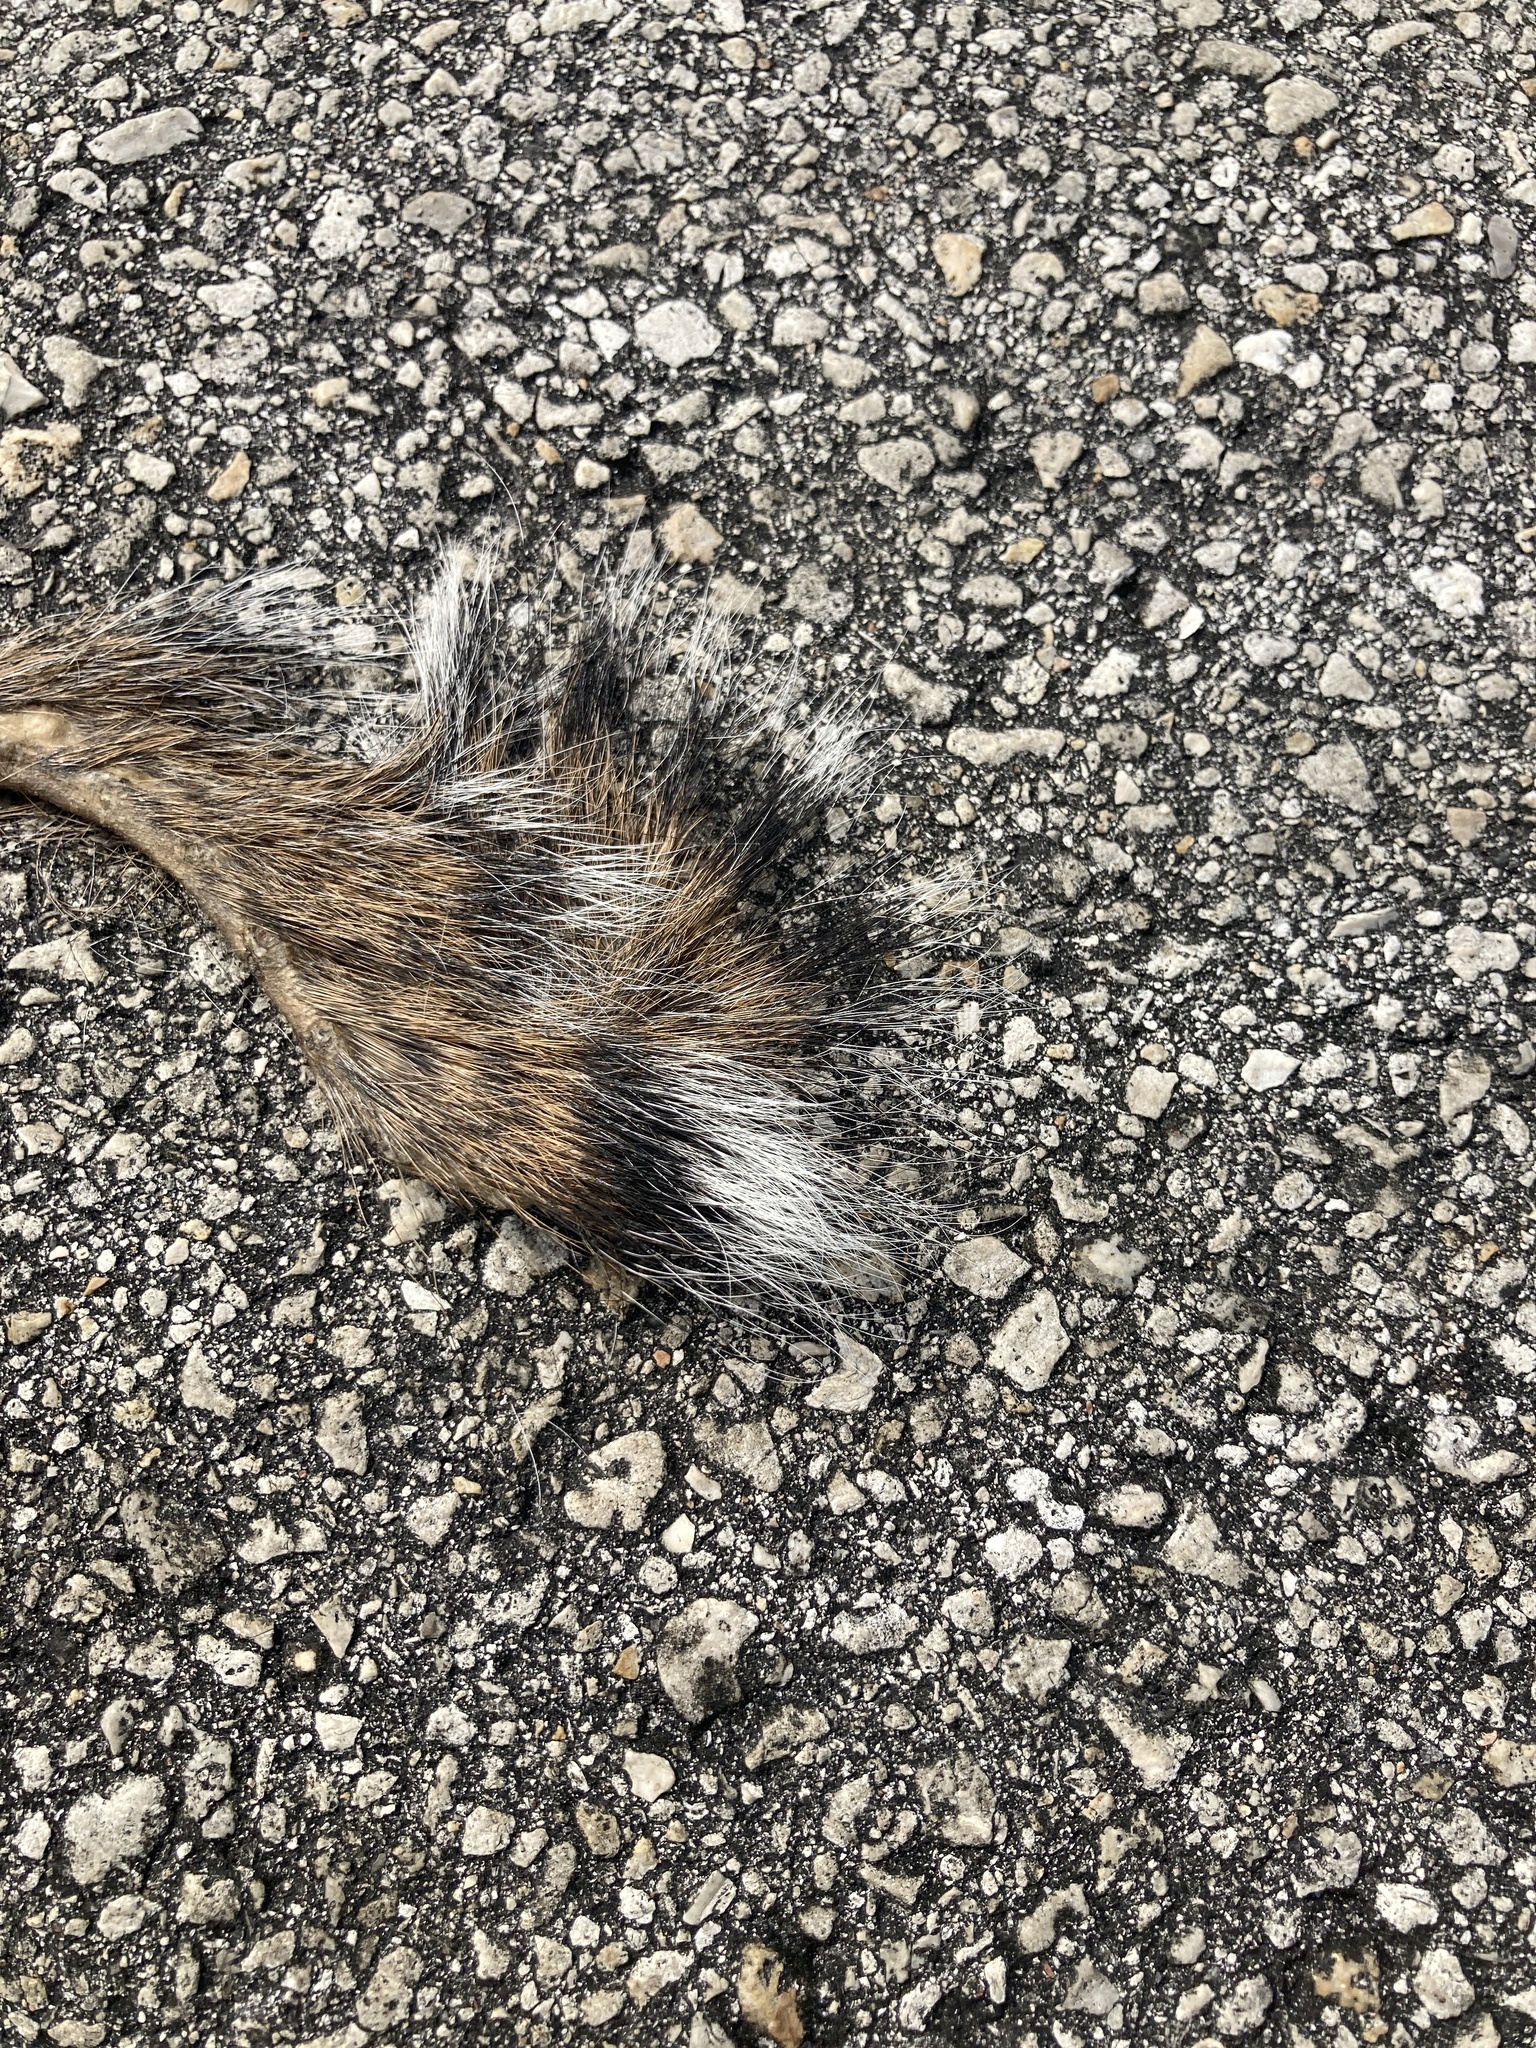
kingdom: Animalia
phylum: Chordata
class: Mammalia
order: Rodentia
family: Sciuridae
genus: Sciurus
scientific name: Sciurus carolinensis
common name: Eastern gray squirrel
